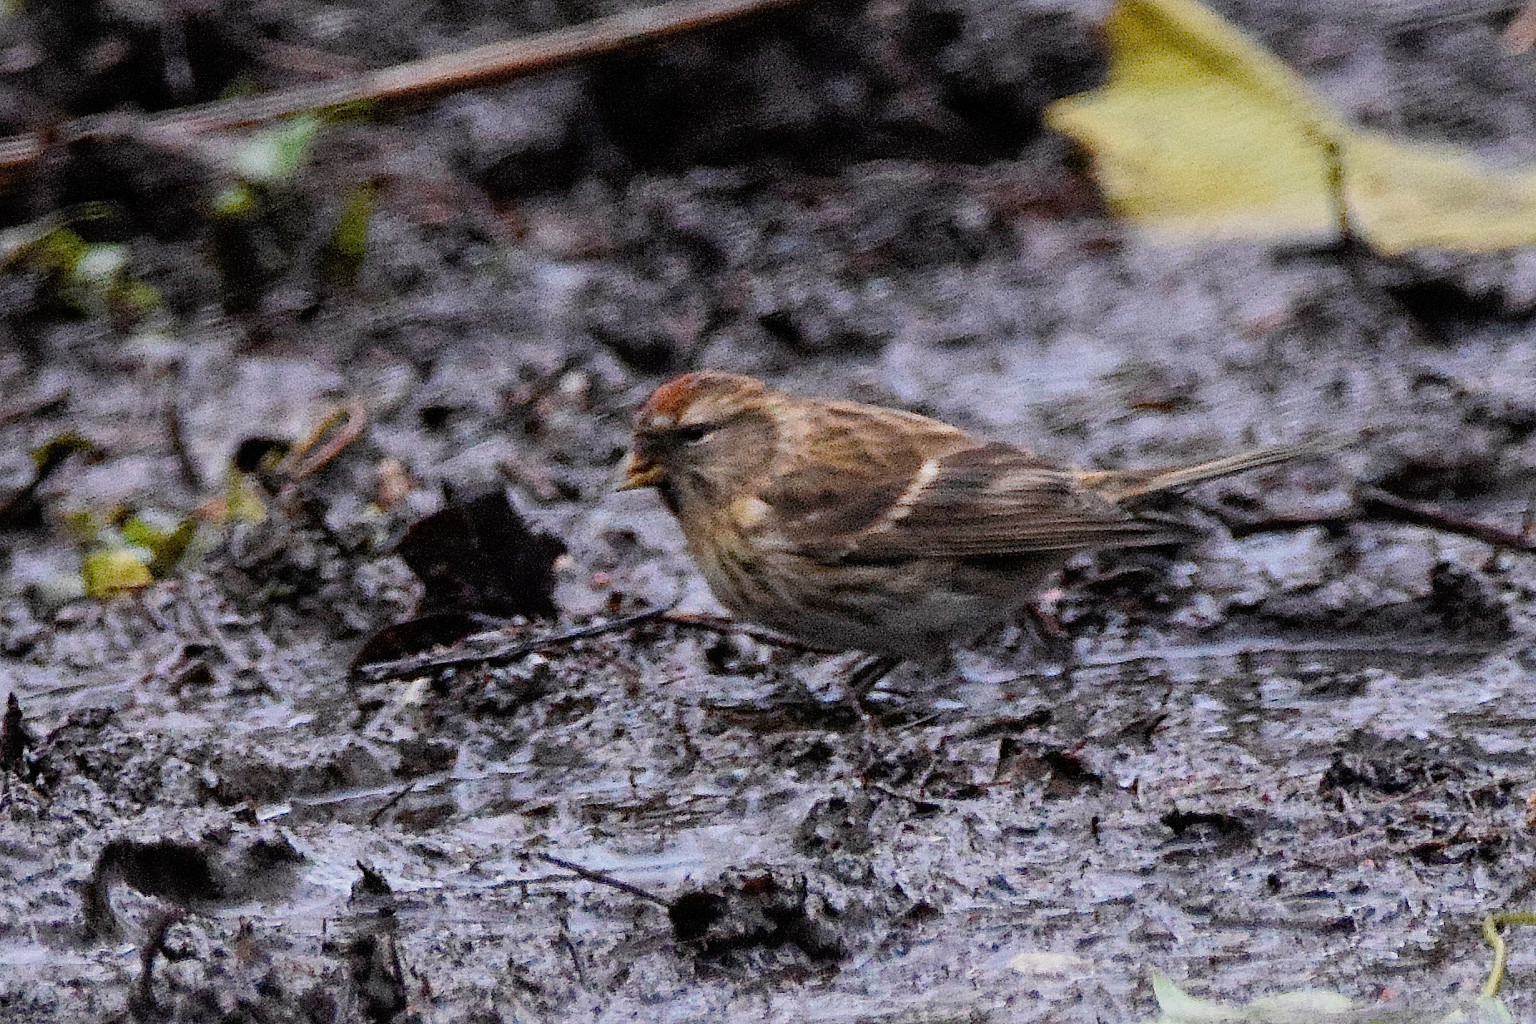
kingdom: Animalia
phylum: Chordata
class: Aves
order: Passeriformes
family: Fringillidae
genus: Acanthis
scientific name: Acanthis flammea
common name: Common redpoll
